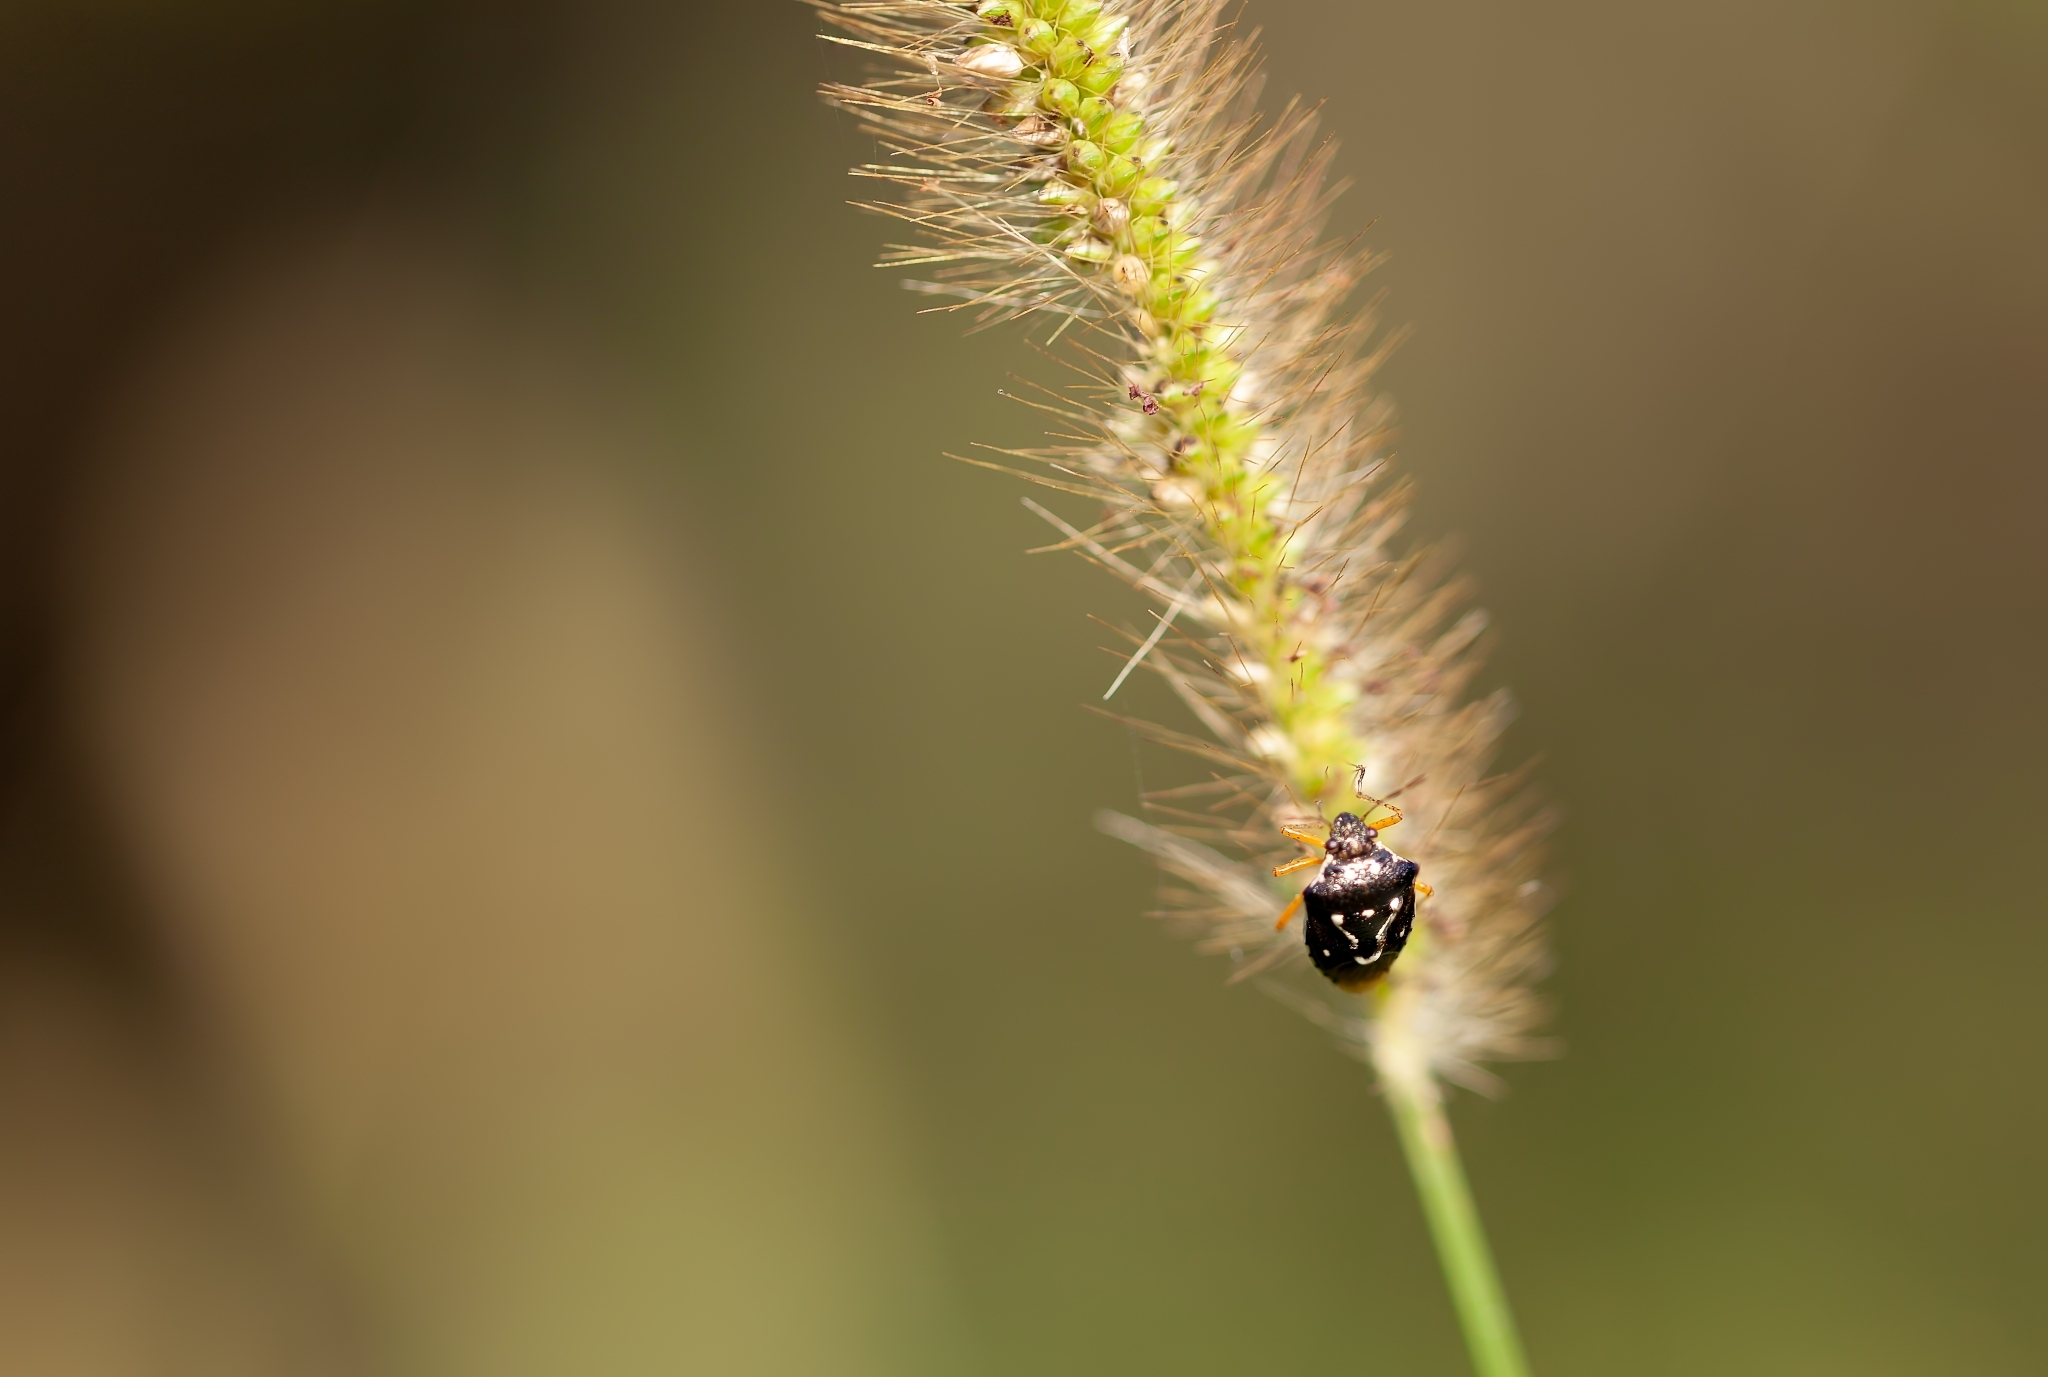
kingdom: Animalia
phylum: Arthropoda
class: Insecta
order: Hemiptera
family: Pentatomidae
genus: Mormidea
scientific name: Mormidea pama
